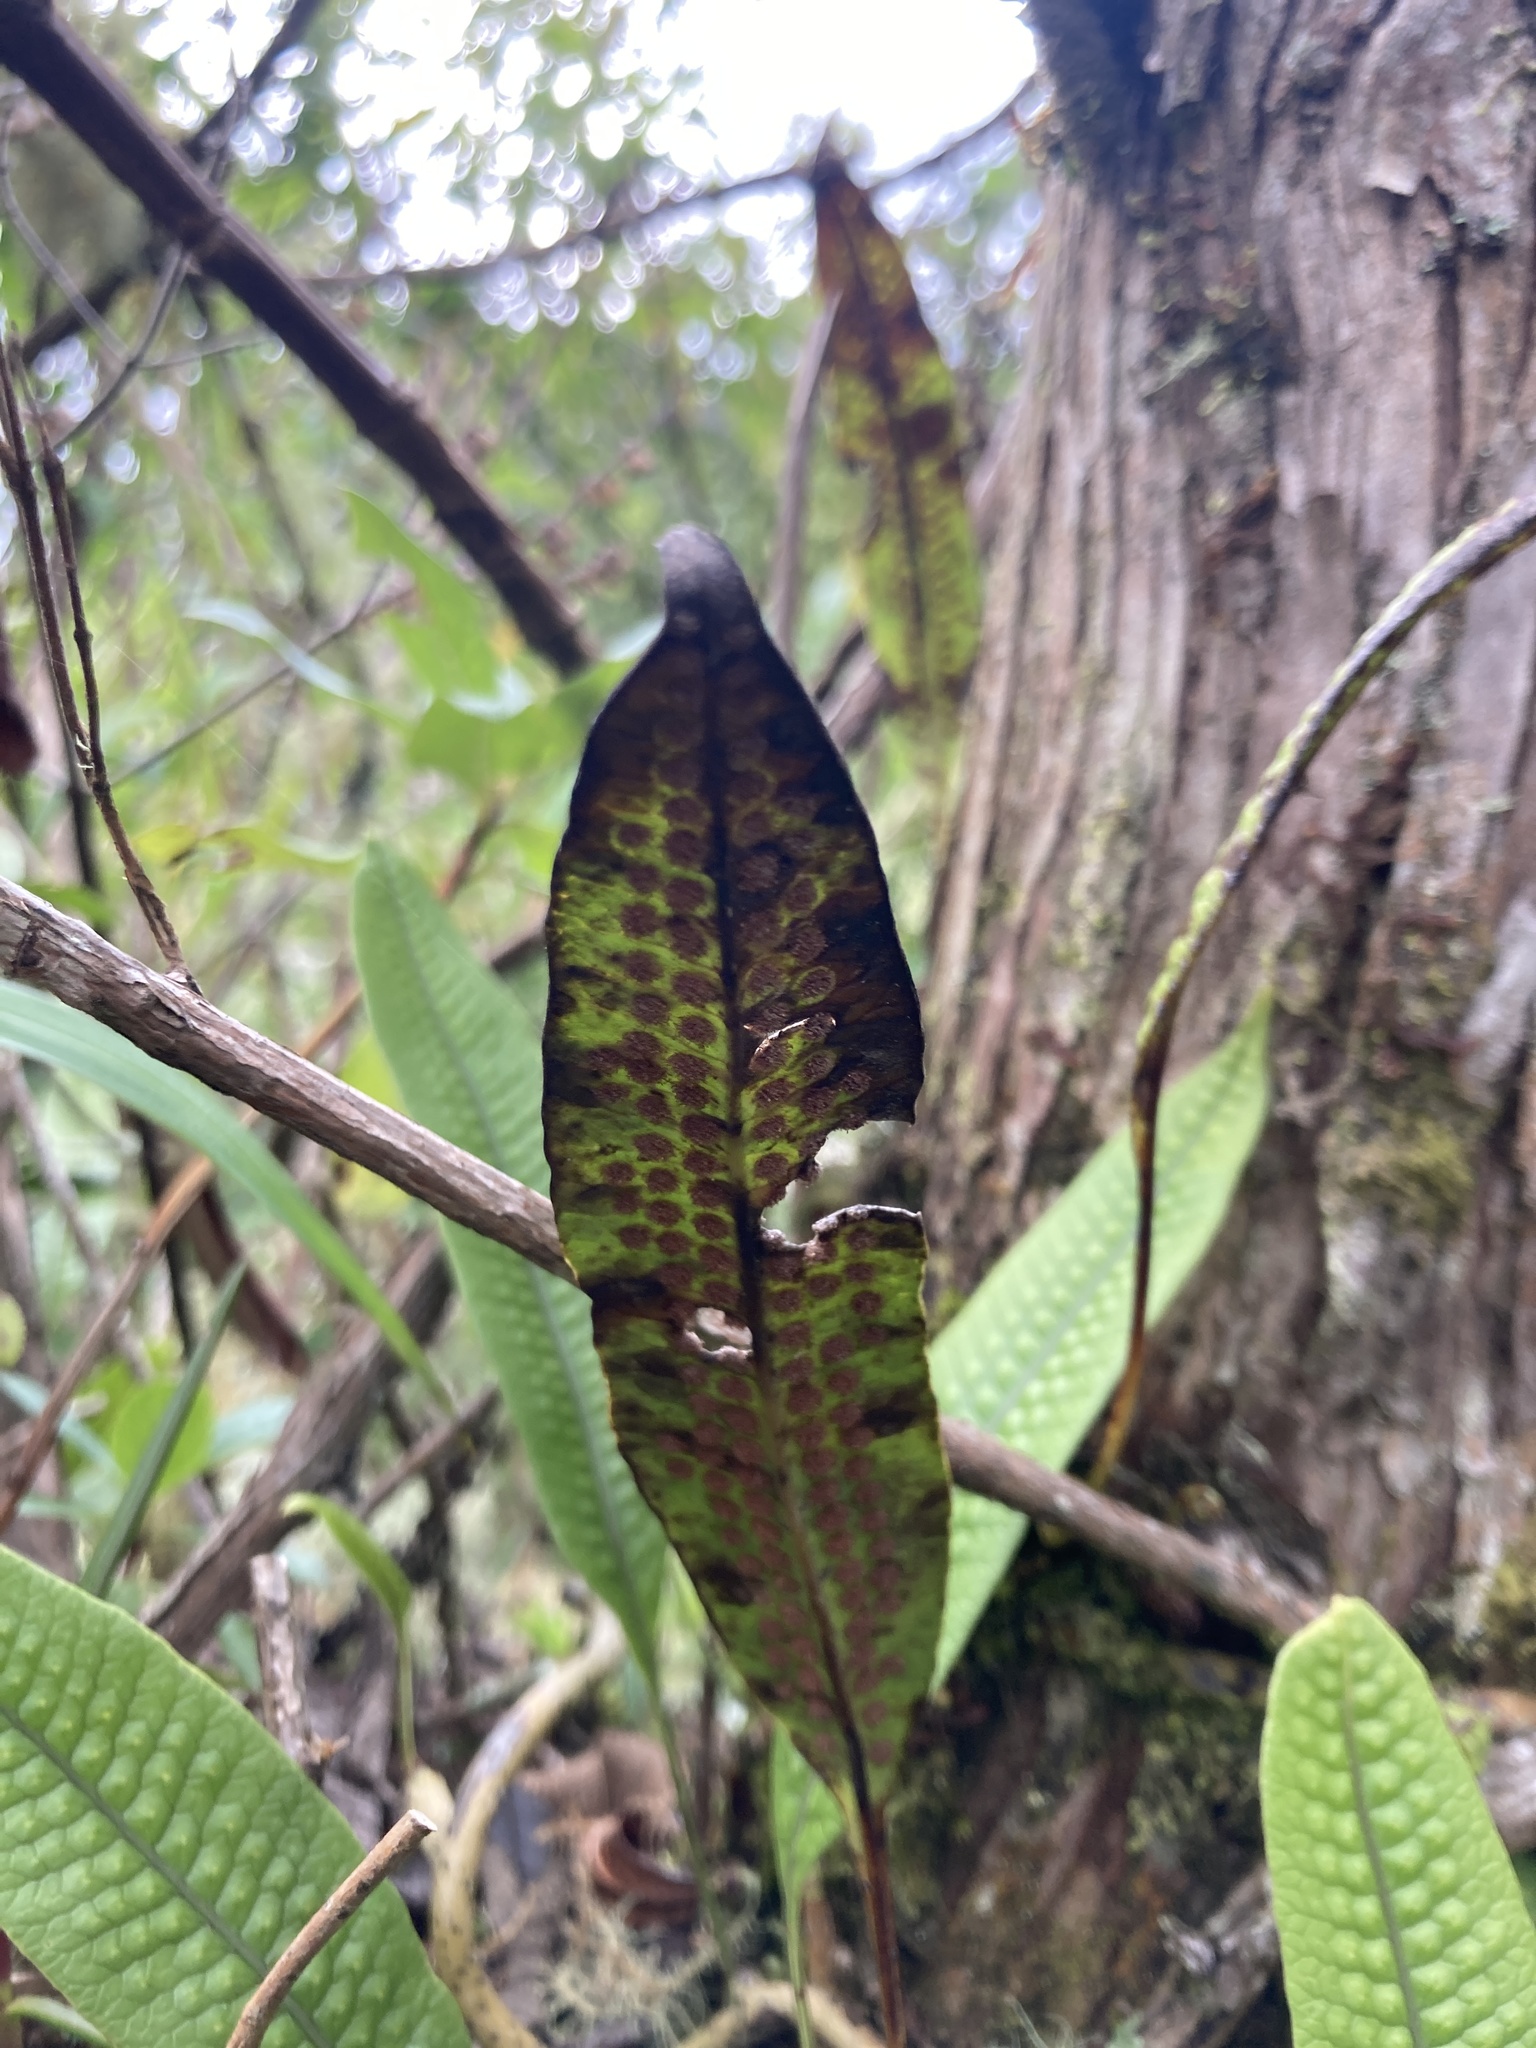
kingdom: Plantae
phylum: Tracheophyta
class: Polypodiopsida
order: Polypodiales
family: Polypodiaceae
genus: Serpocaulon
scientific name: Serpocaulon levigatum
